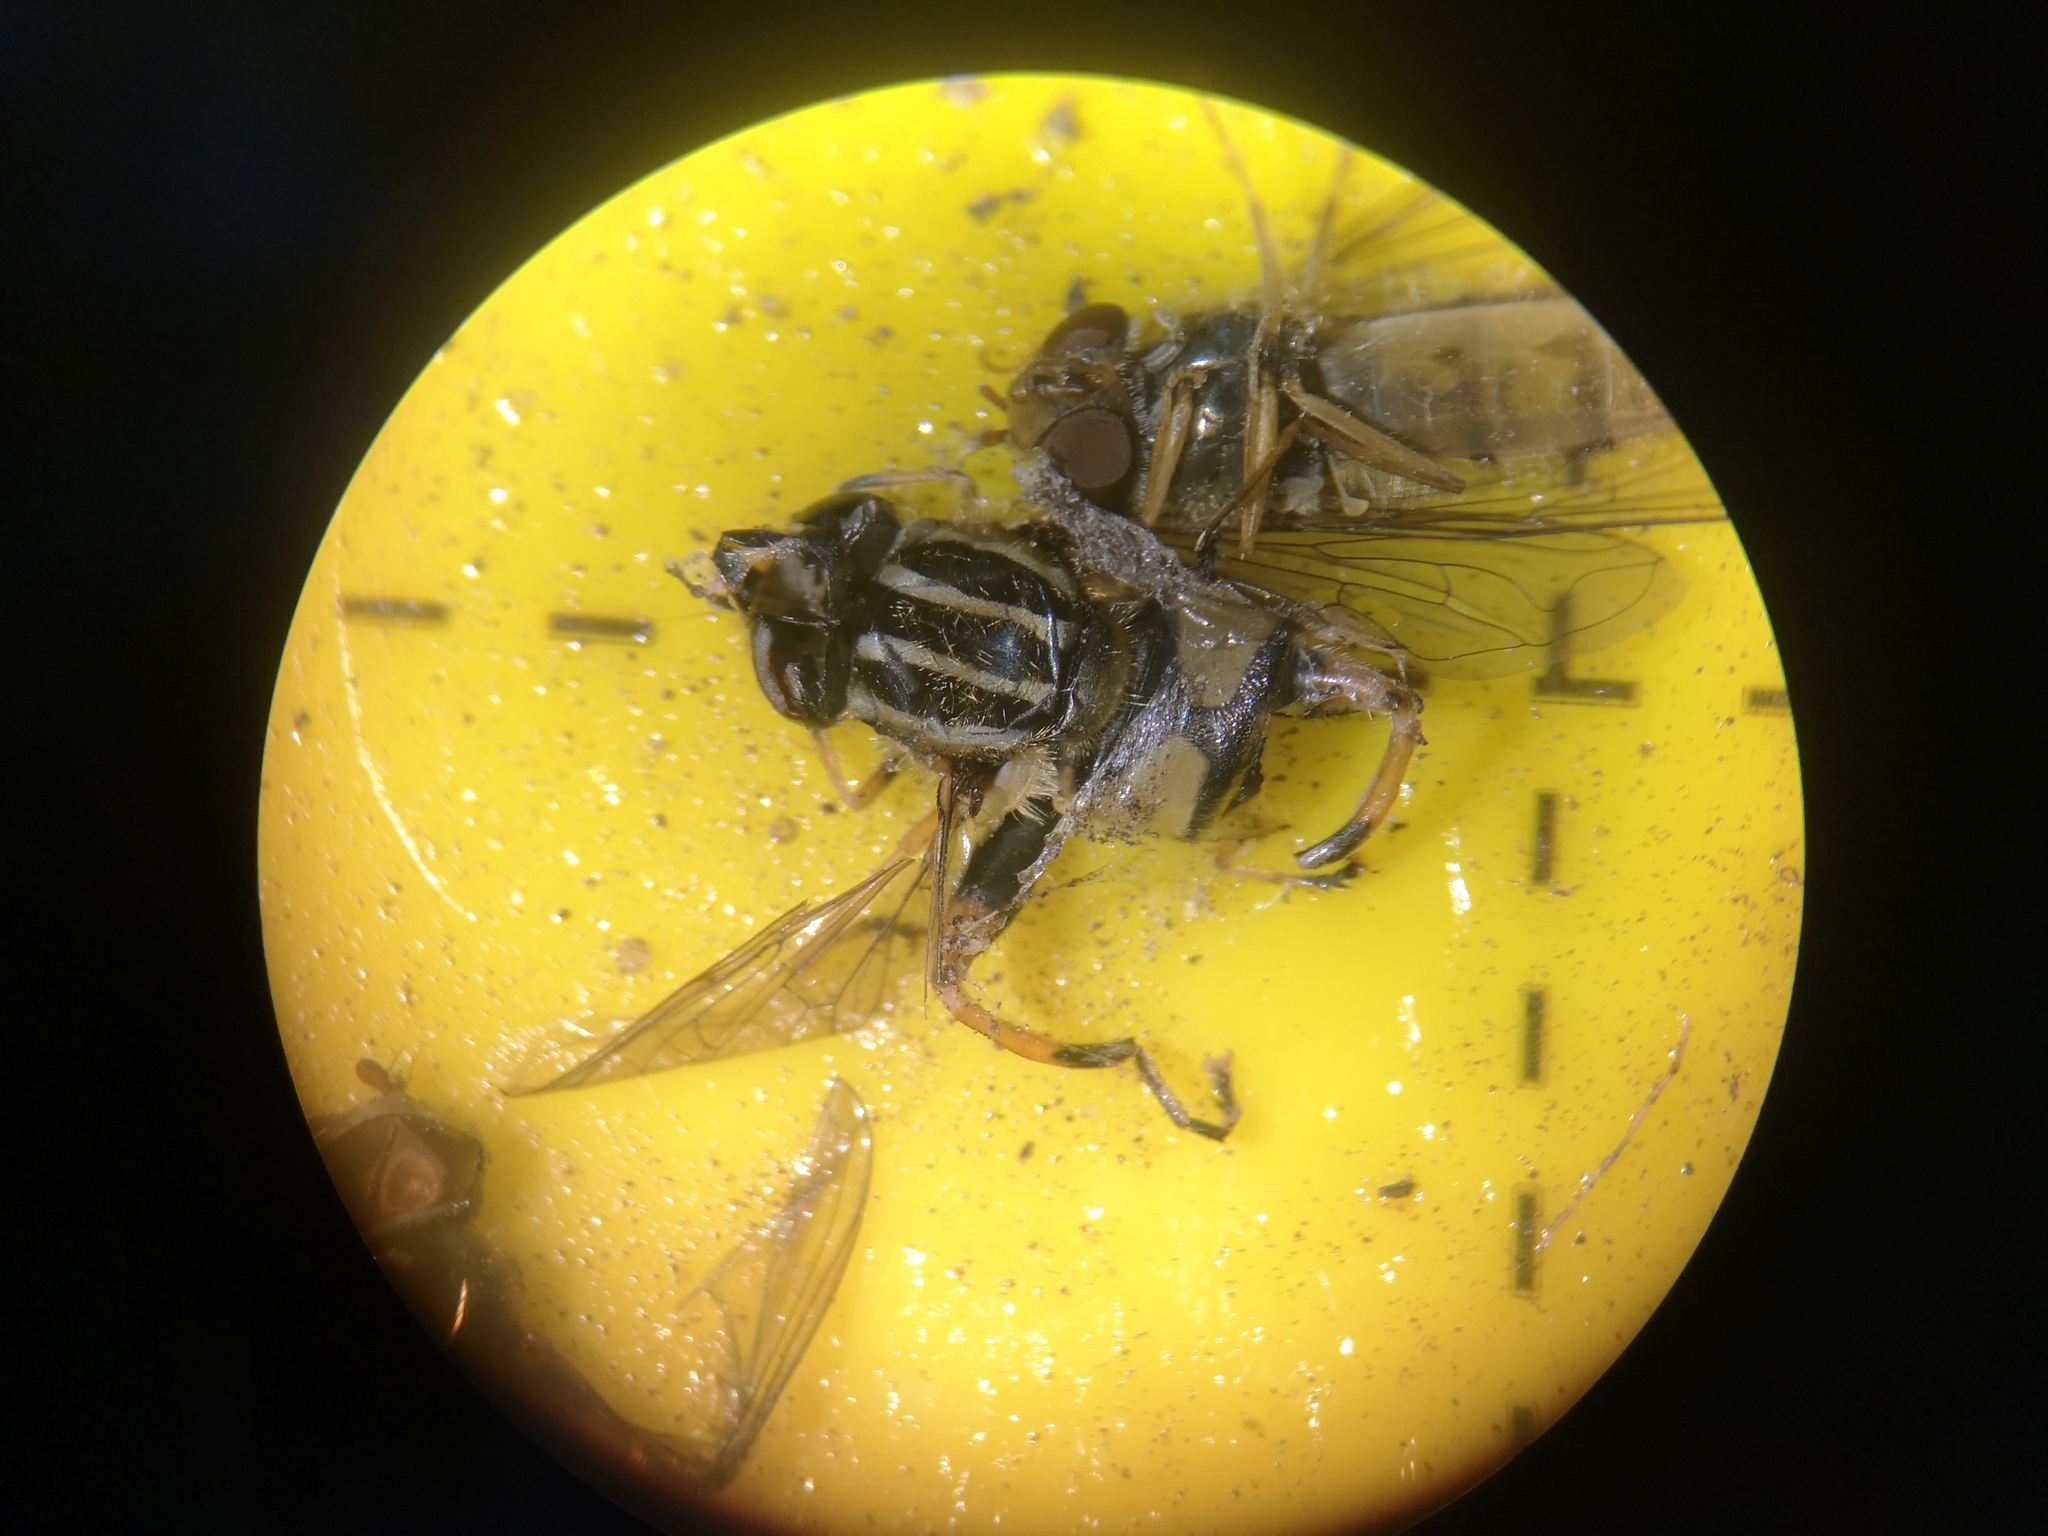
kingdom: Animalia
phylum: Arthropoda
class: Insecta
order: Diptera
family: Syrphidae
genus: Helophilus
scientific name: Helophilus pendulus
